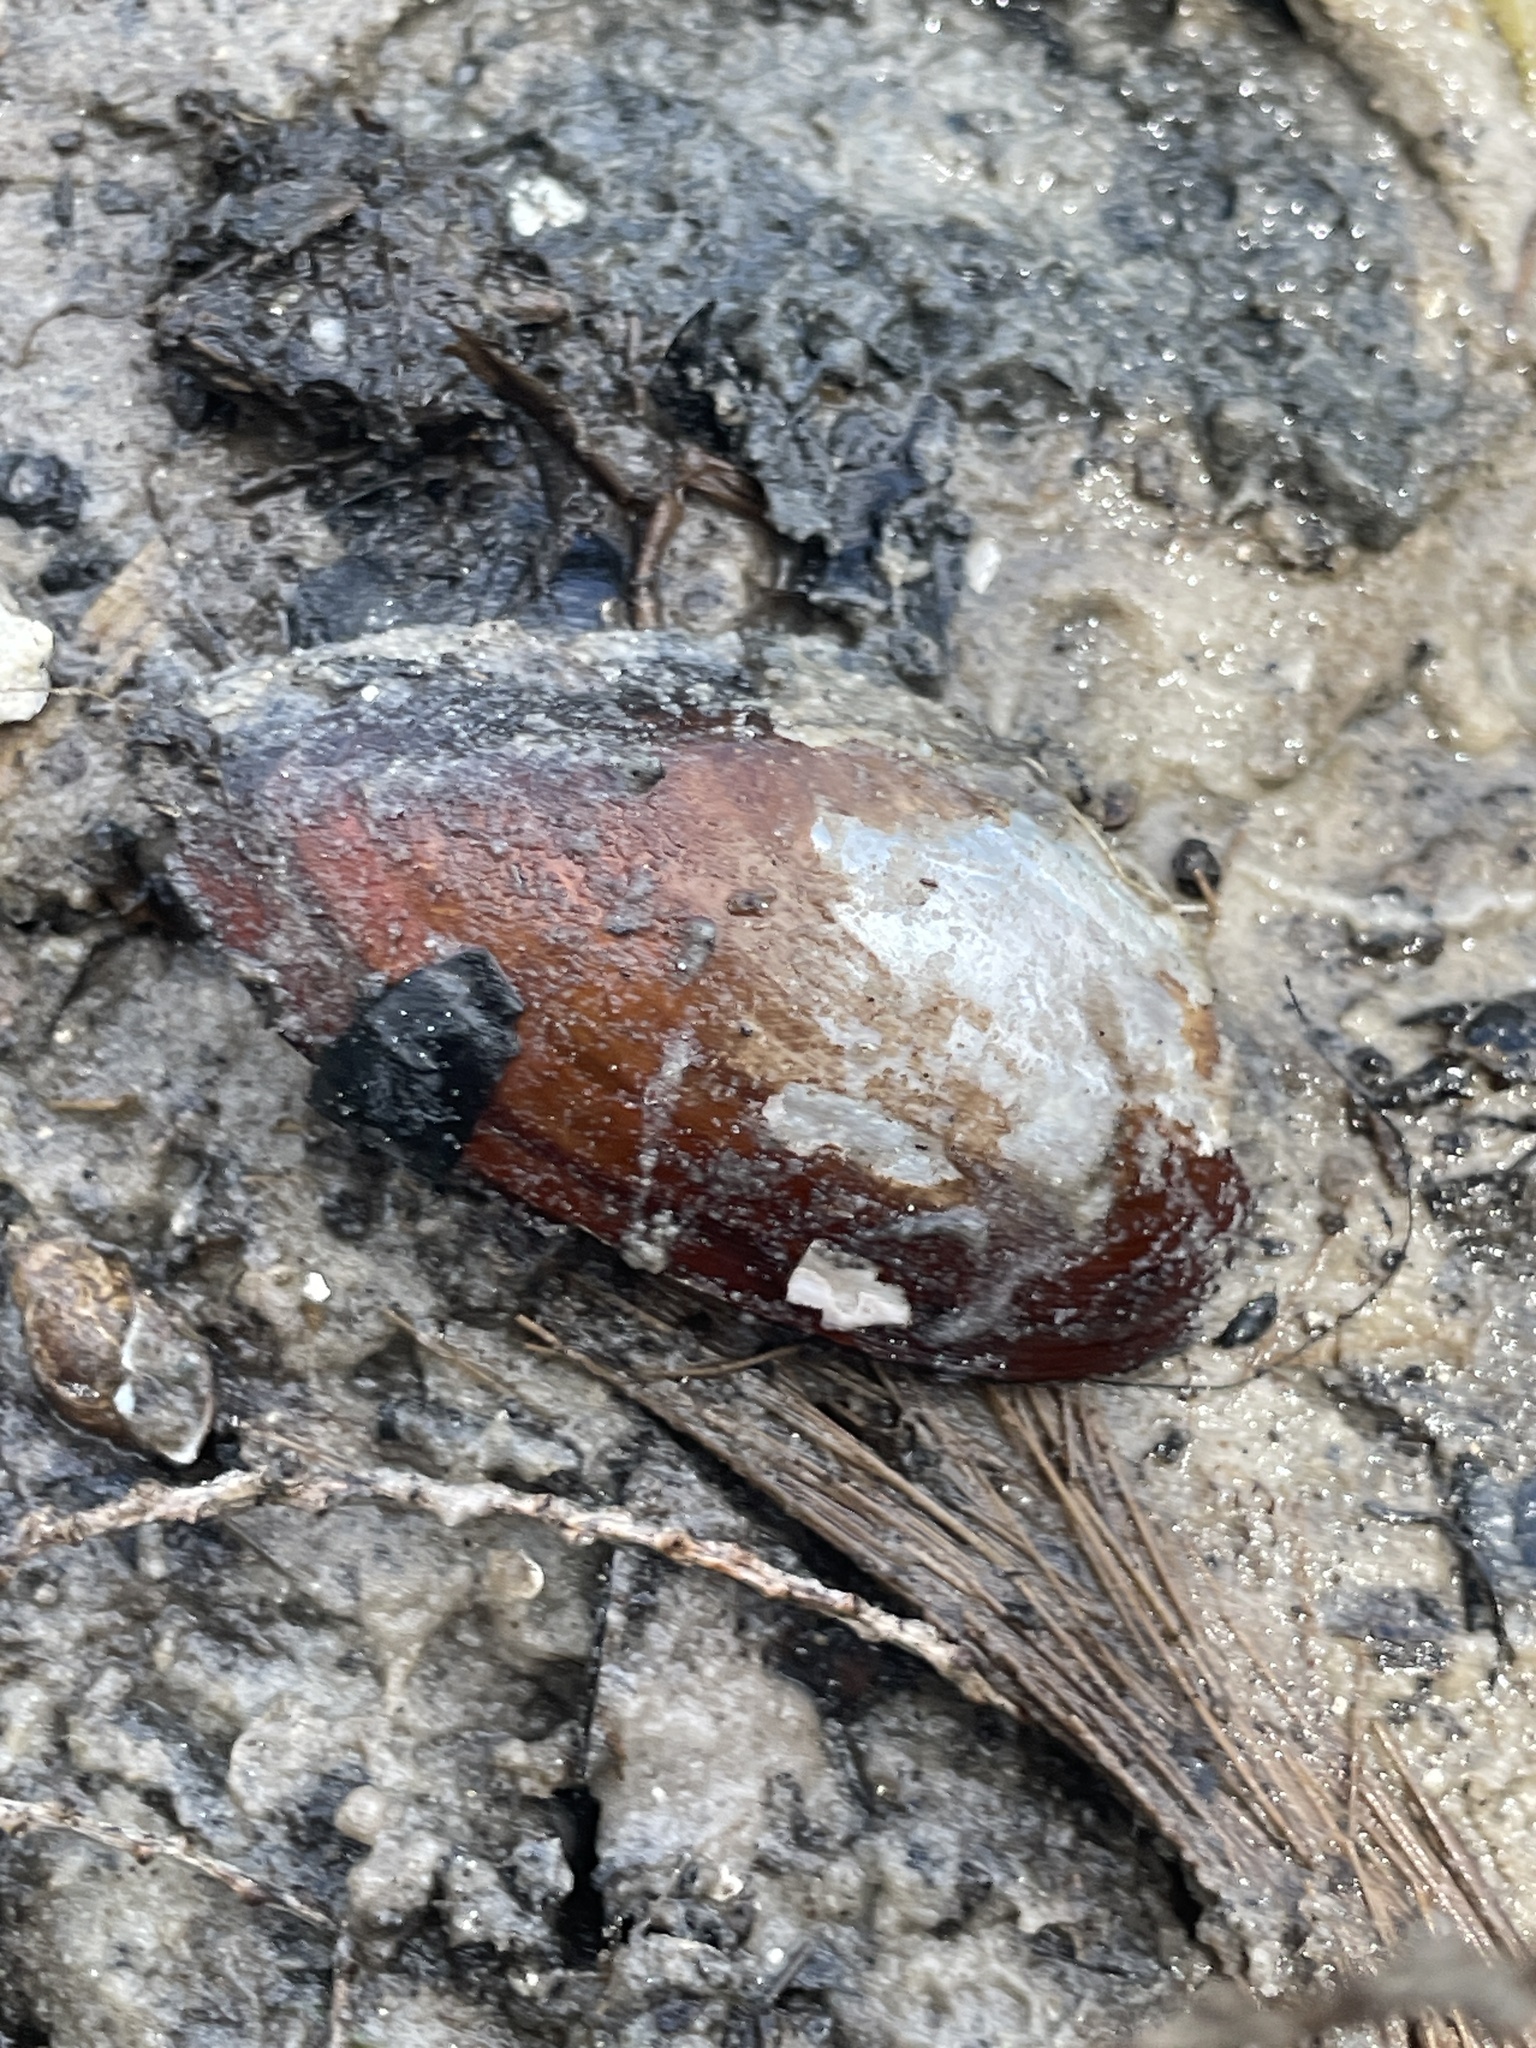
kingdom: Animalia
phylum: Mollusca
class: Bivalvia
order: Unionida
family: Unionidae
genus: Elliptio
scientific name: Elliptio jayensis
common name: Florida spike
